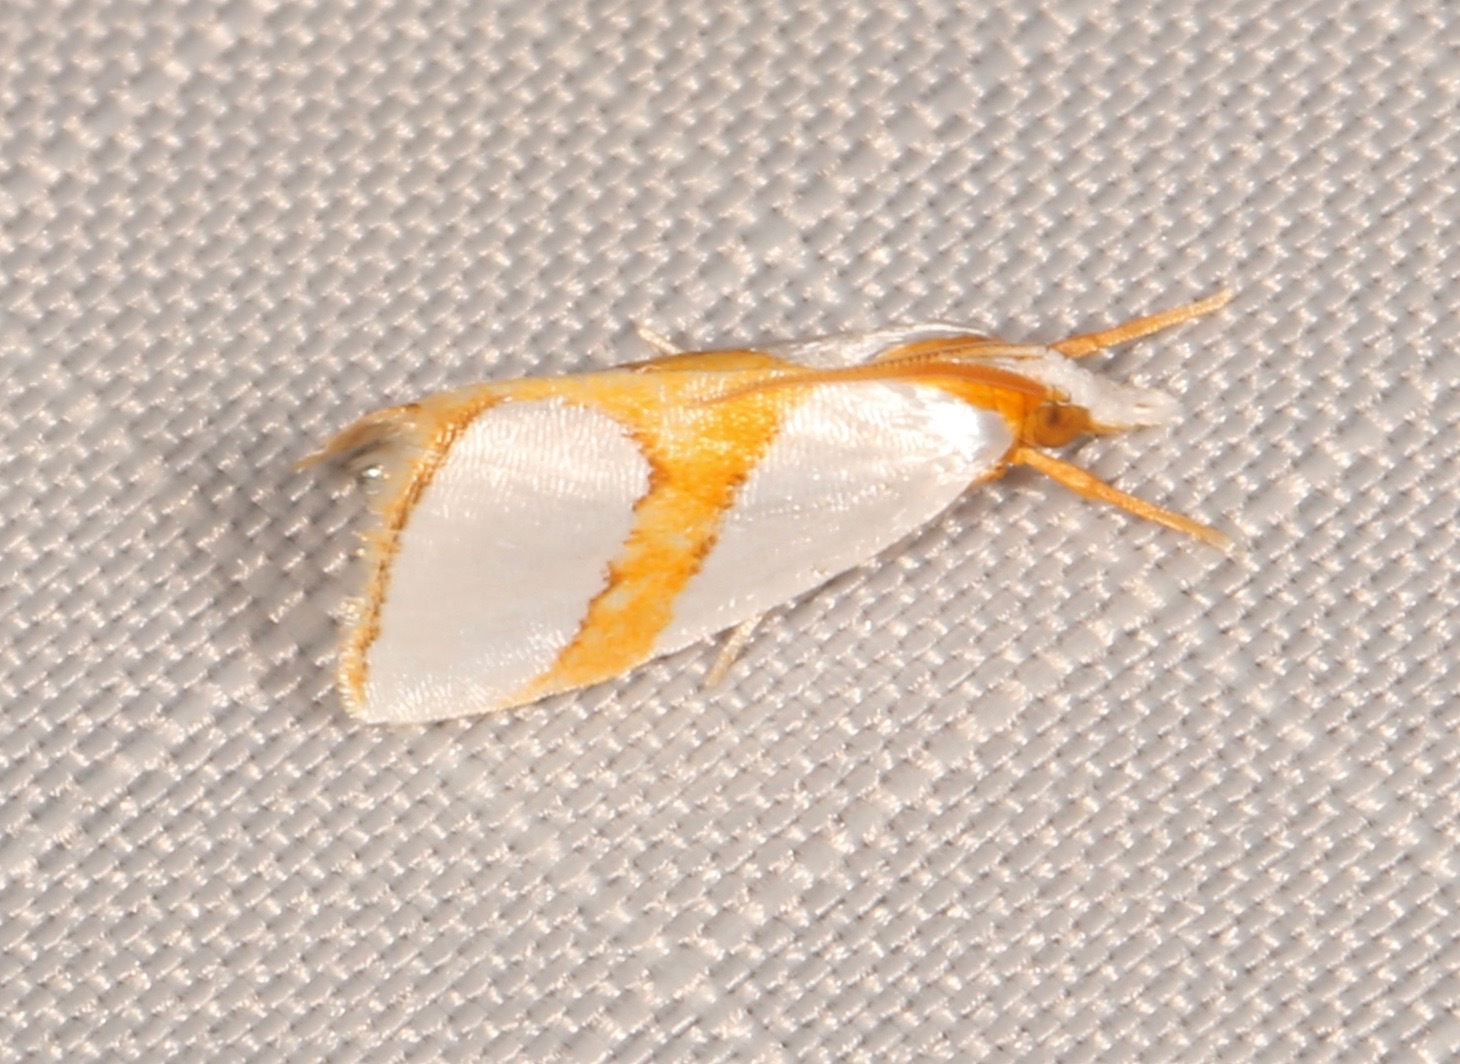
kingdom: Animalia
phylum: Arthropoda
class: Insecta
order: Lepidoptera
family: Crambidae
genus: Argyria
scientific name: Argyria auratella
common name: Curve-lined argyria moth
